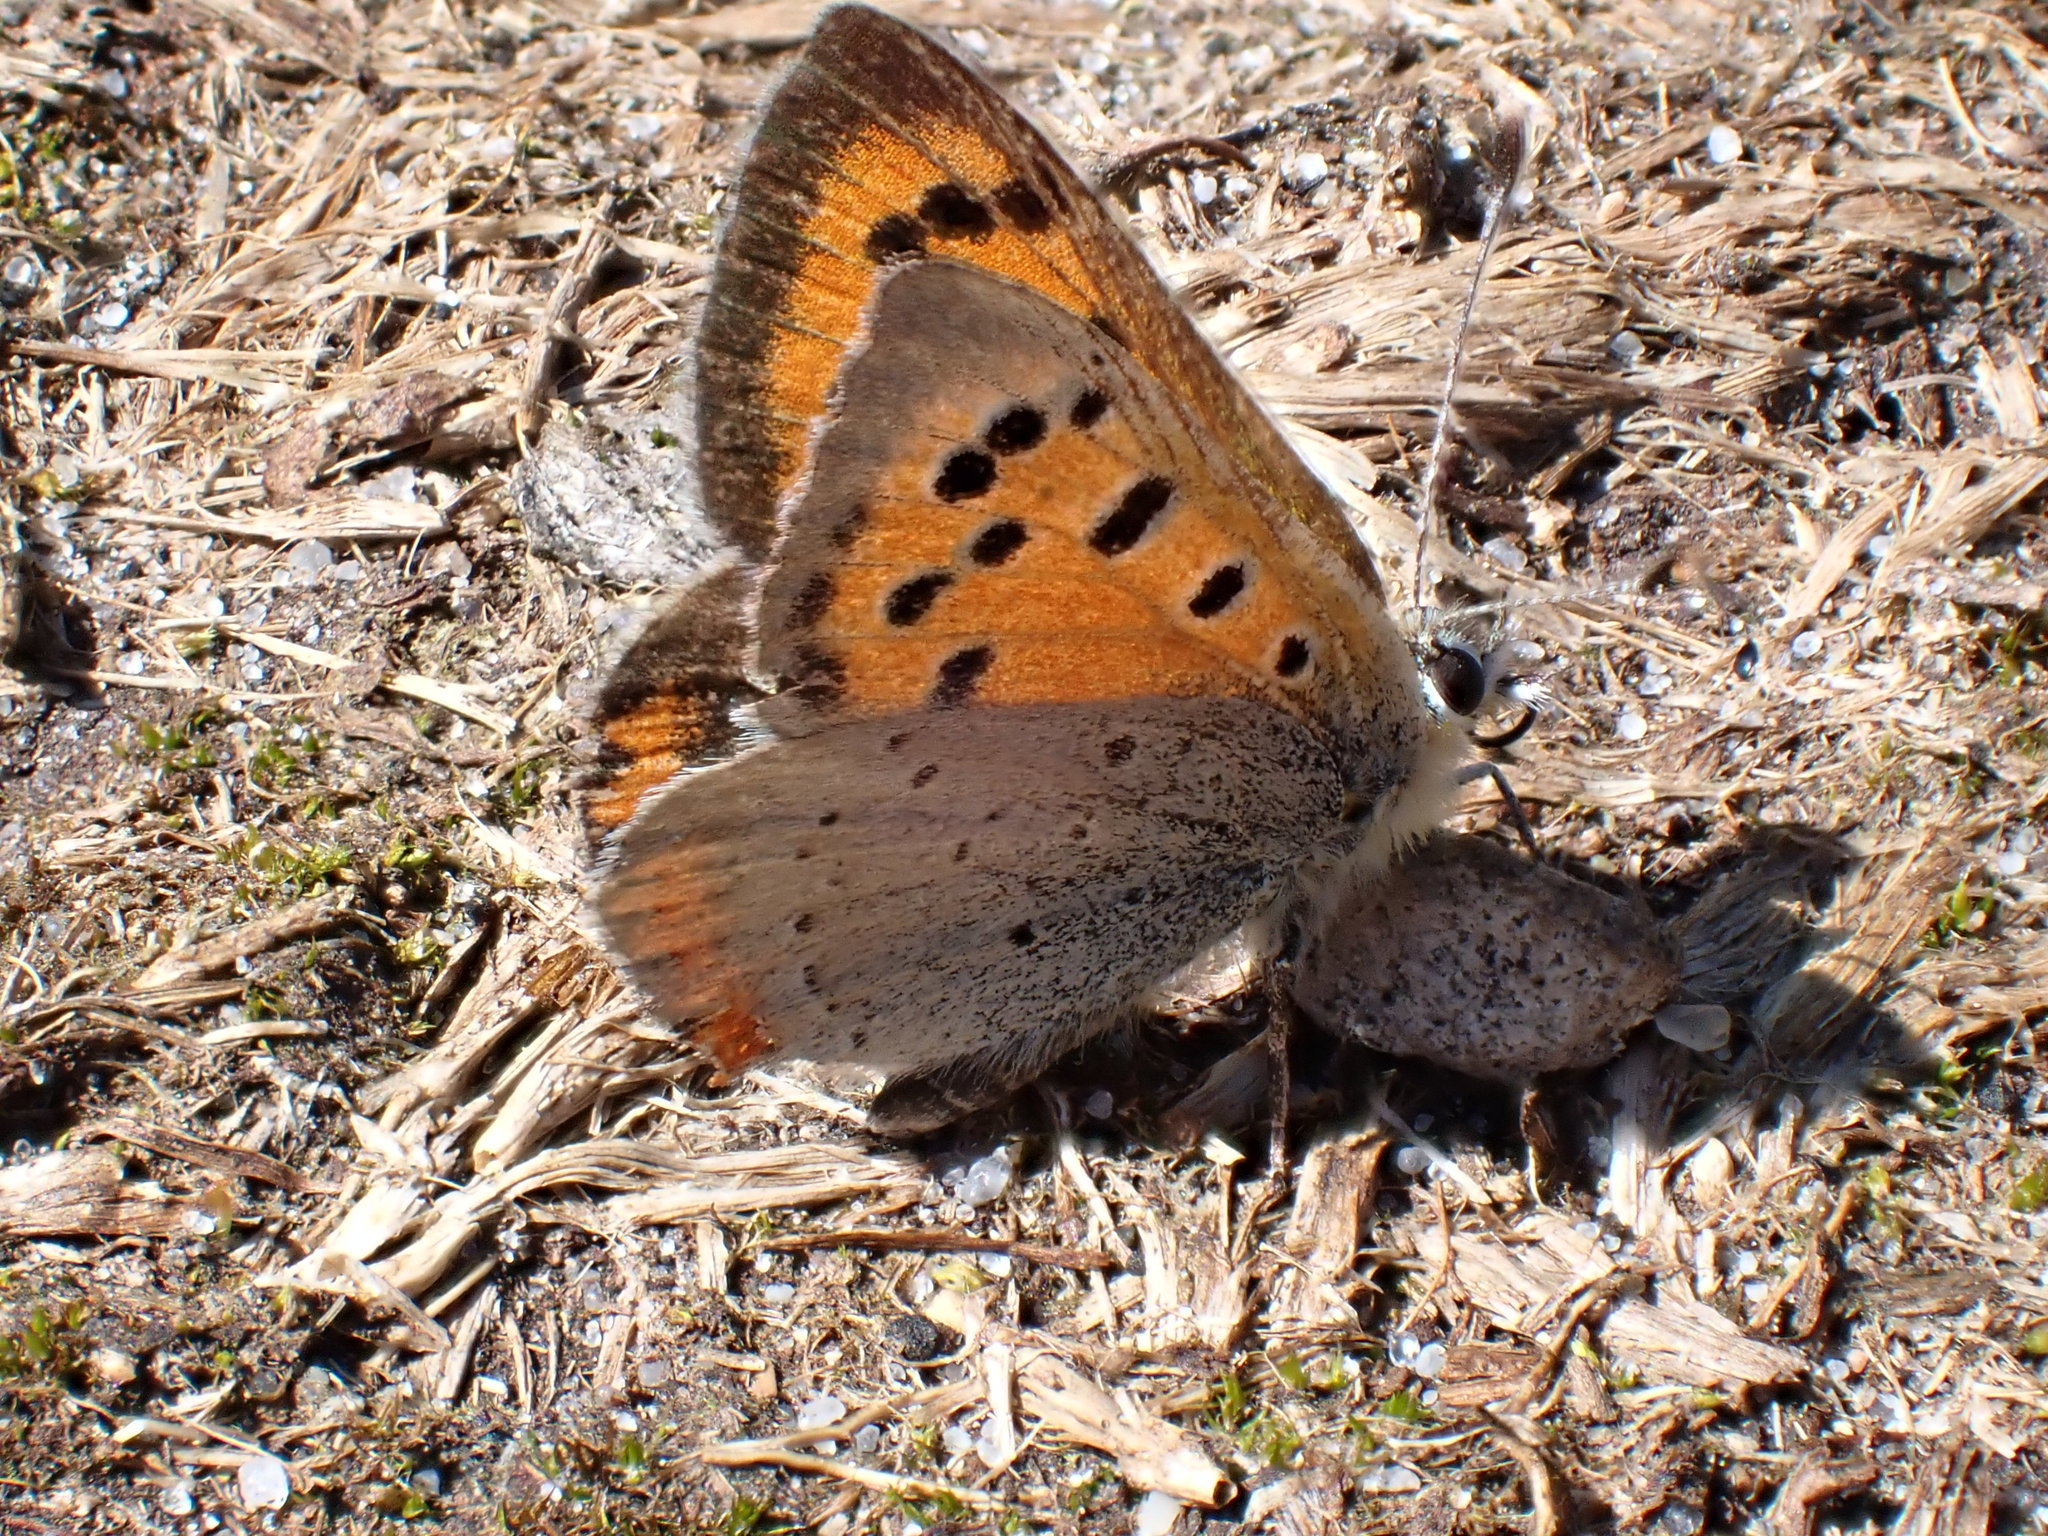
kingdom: Animalia
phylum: Arthropoda
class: Insecta
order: Lepidoptera
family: Lycaenidae
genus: Lycaena
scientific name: Lycaena phlaeas
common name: Small copper
